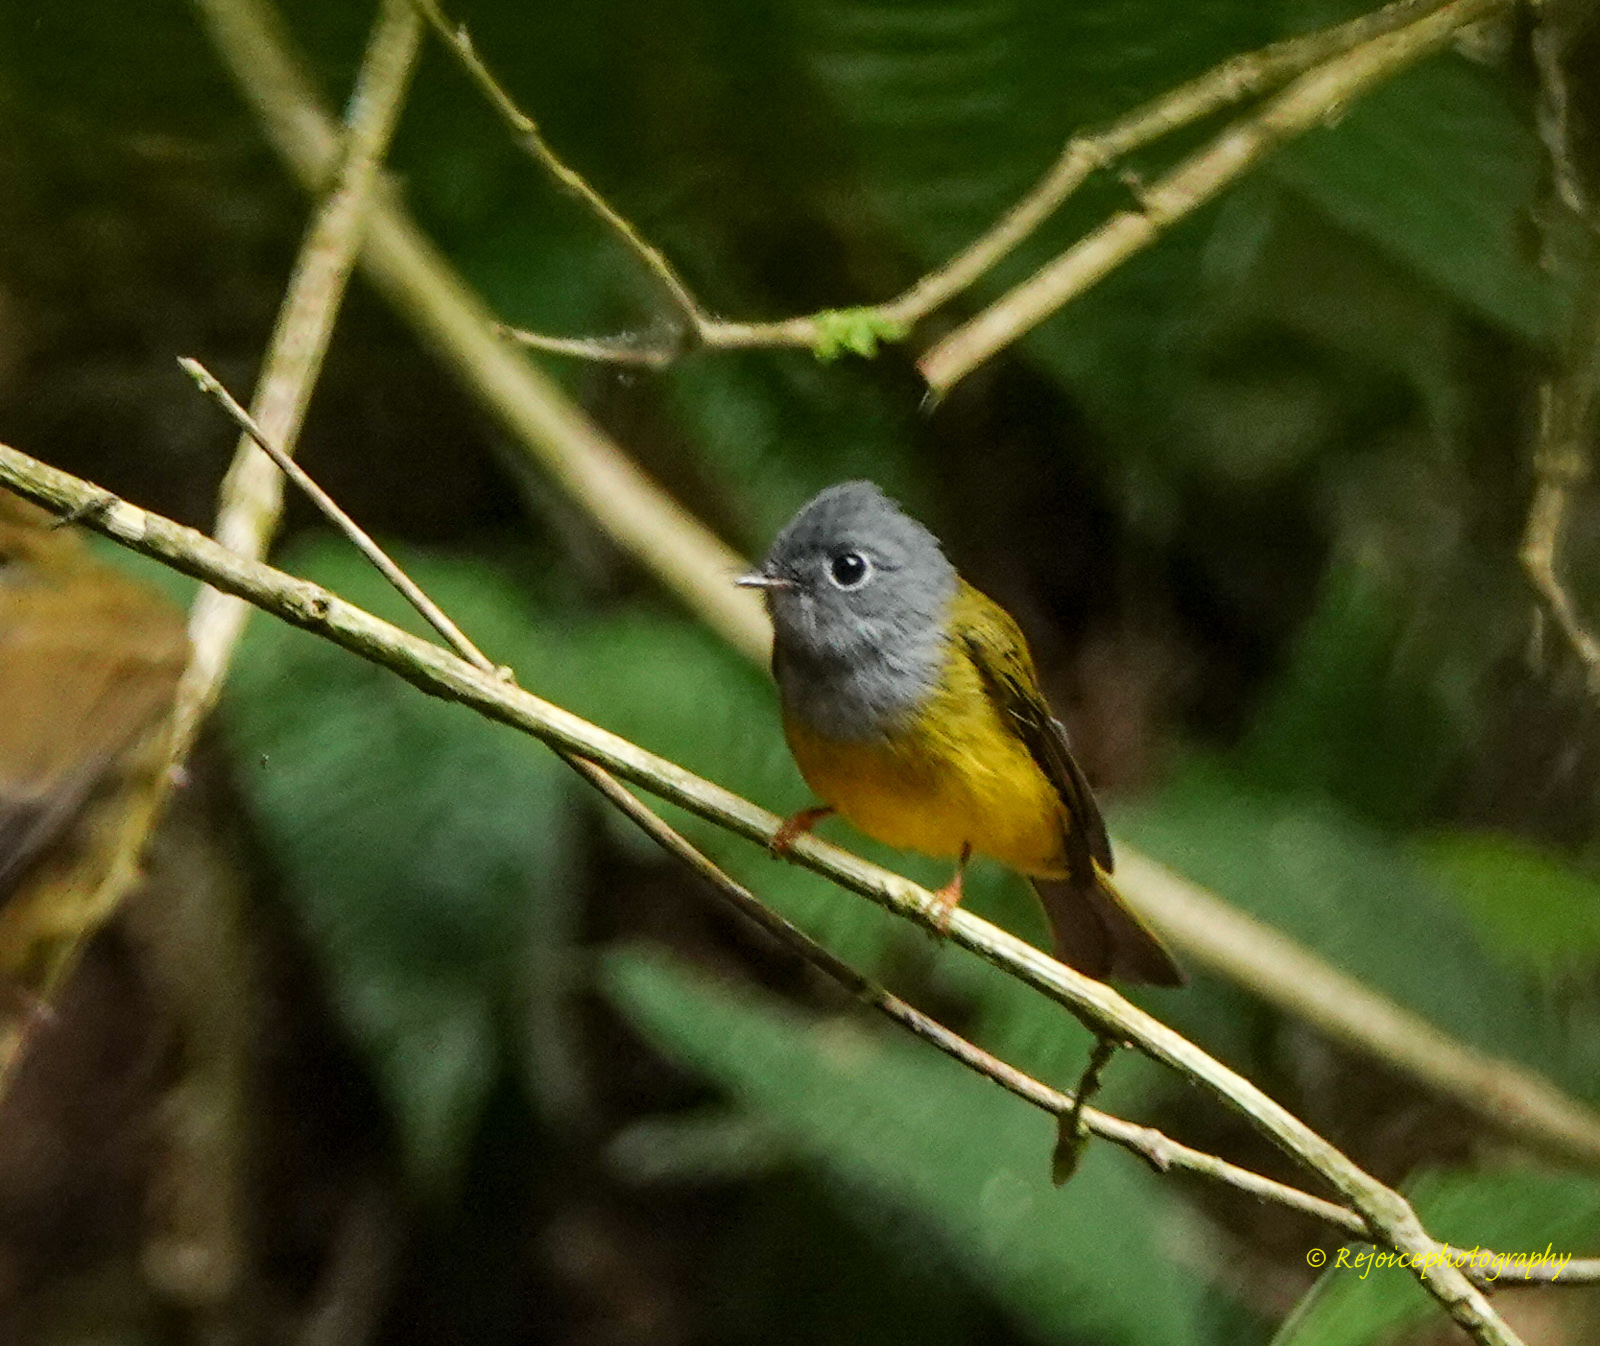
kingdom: Animalia
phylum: Chordata
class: Aves
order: Passeriformes
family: Stenostiridae
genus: Culicicapa
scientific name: Culicicapa ceylonensis
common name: Grey-headed canary-flycatcher
